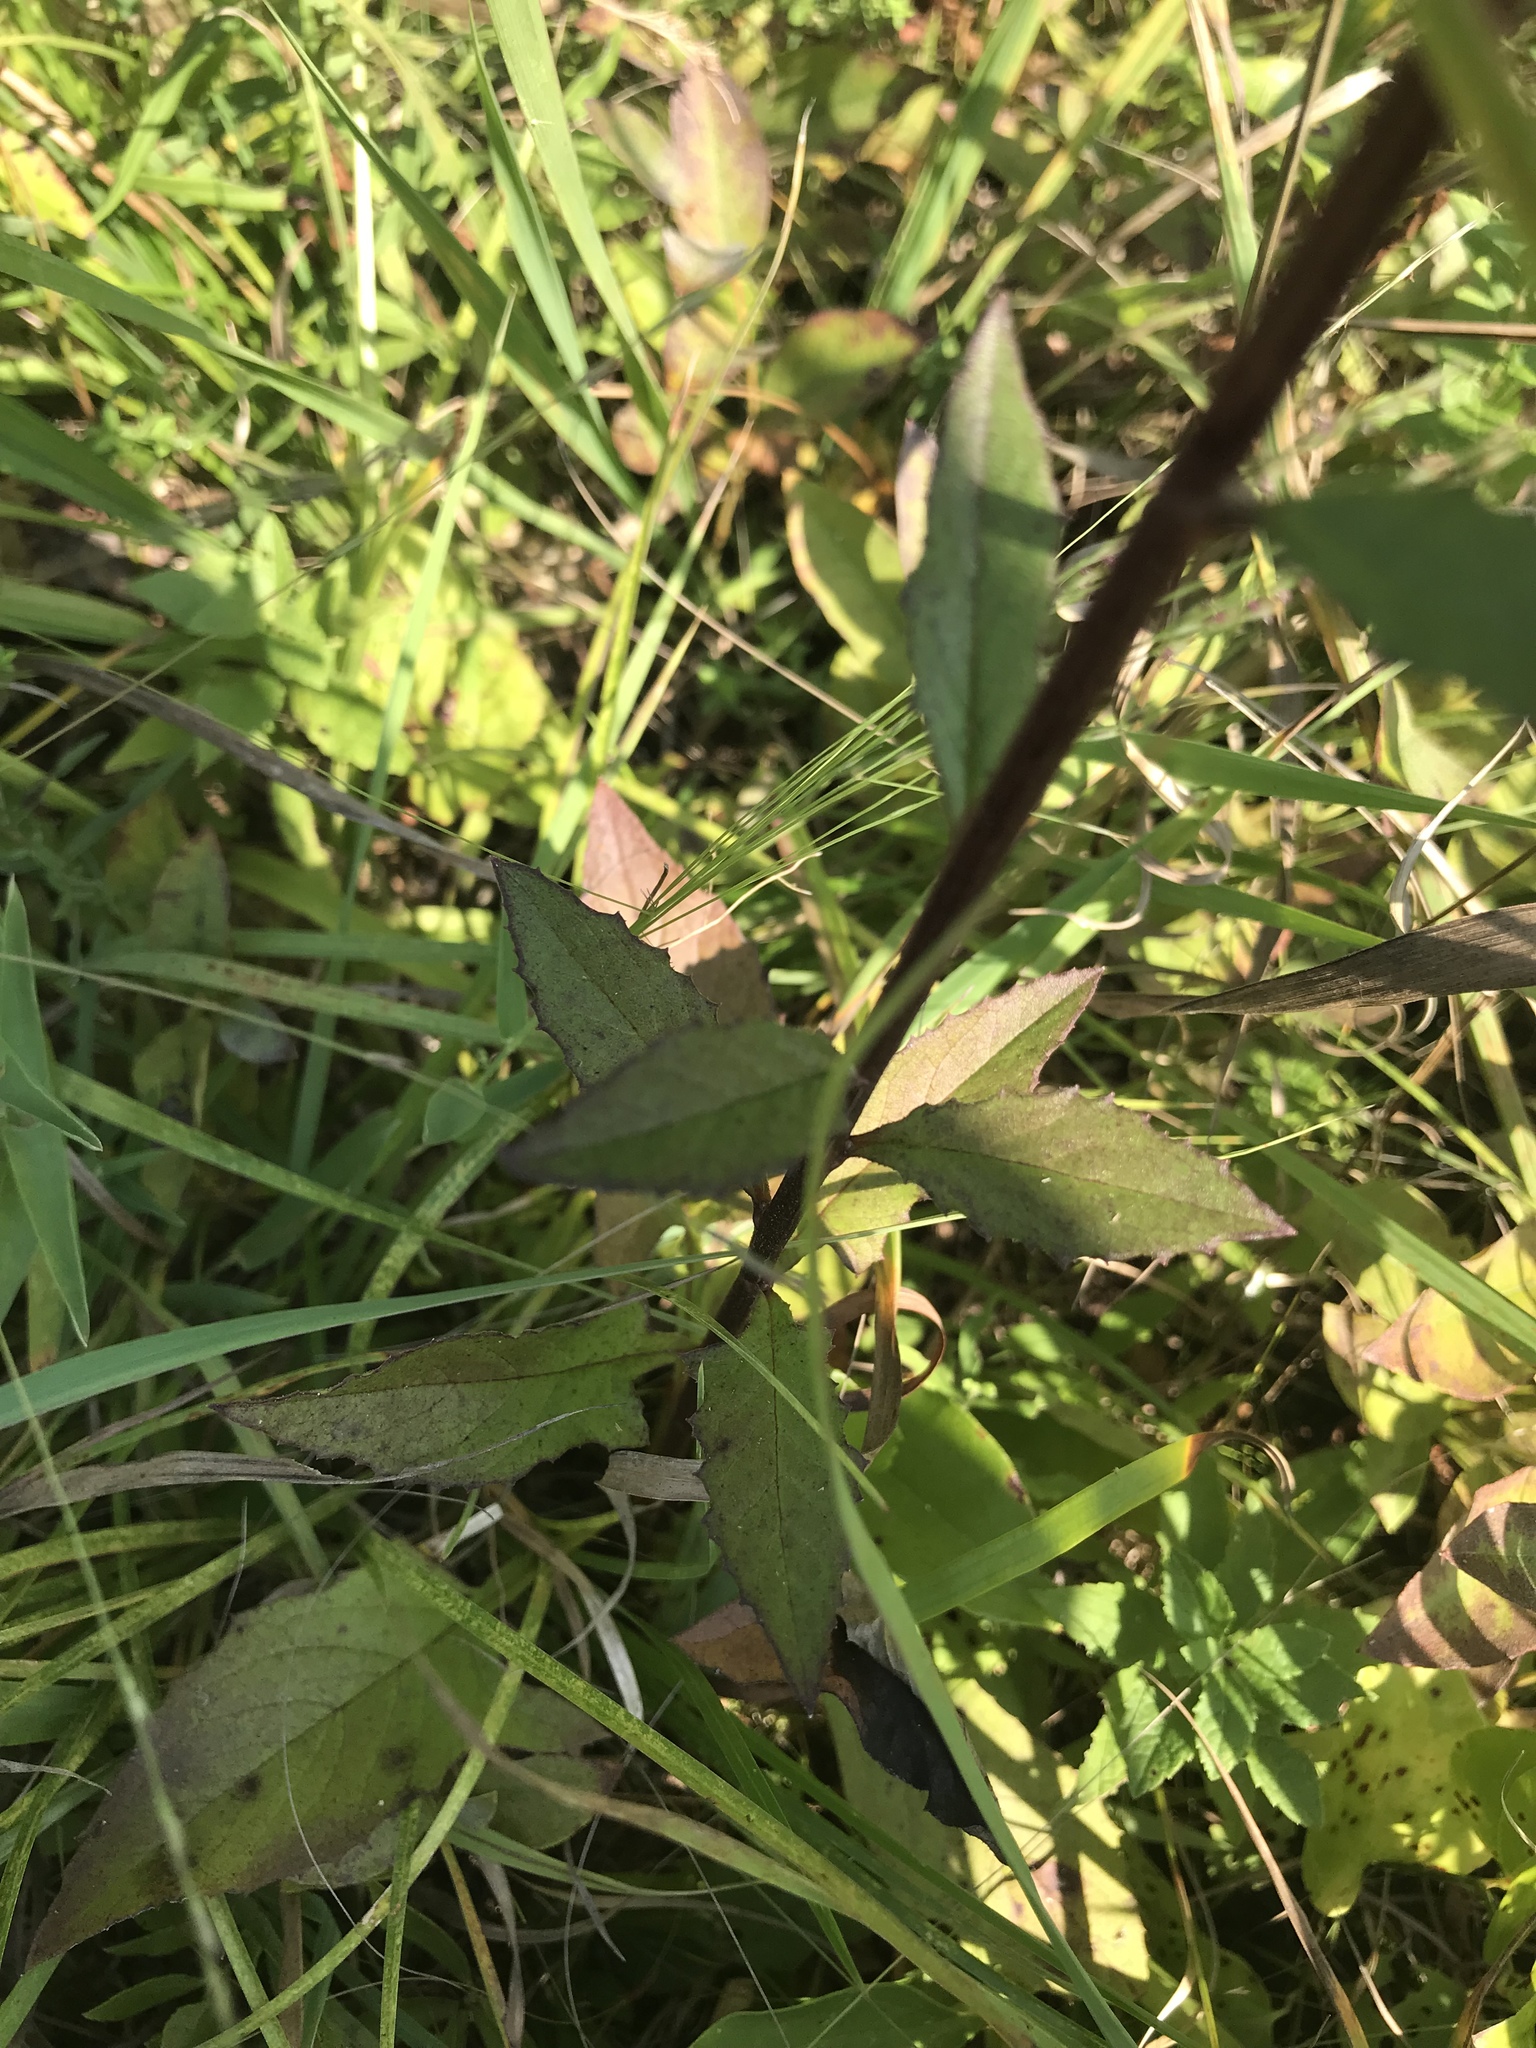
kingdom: Plantae
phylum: Tracheophyta
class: Magnoliopsida
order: Asterales
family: Asteraceae
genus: Nabalus
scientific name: Nabalus altissima
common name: Tall rattlesnakeroot
